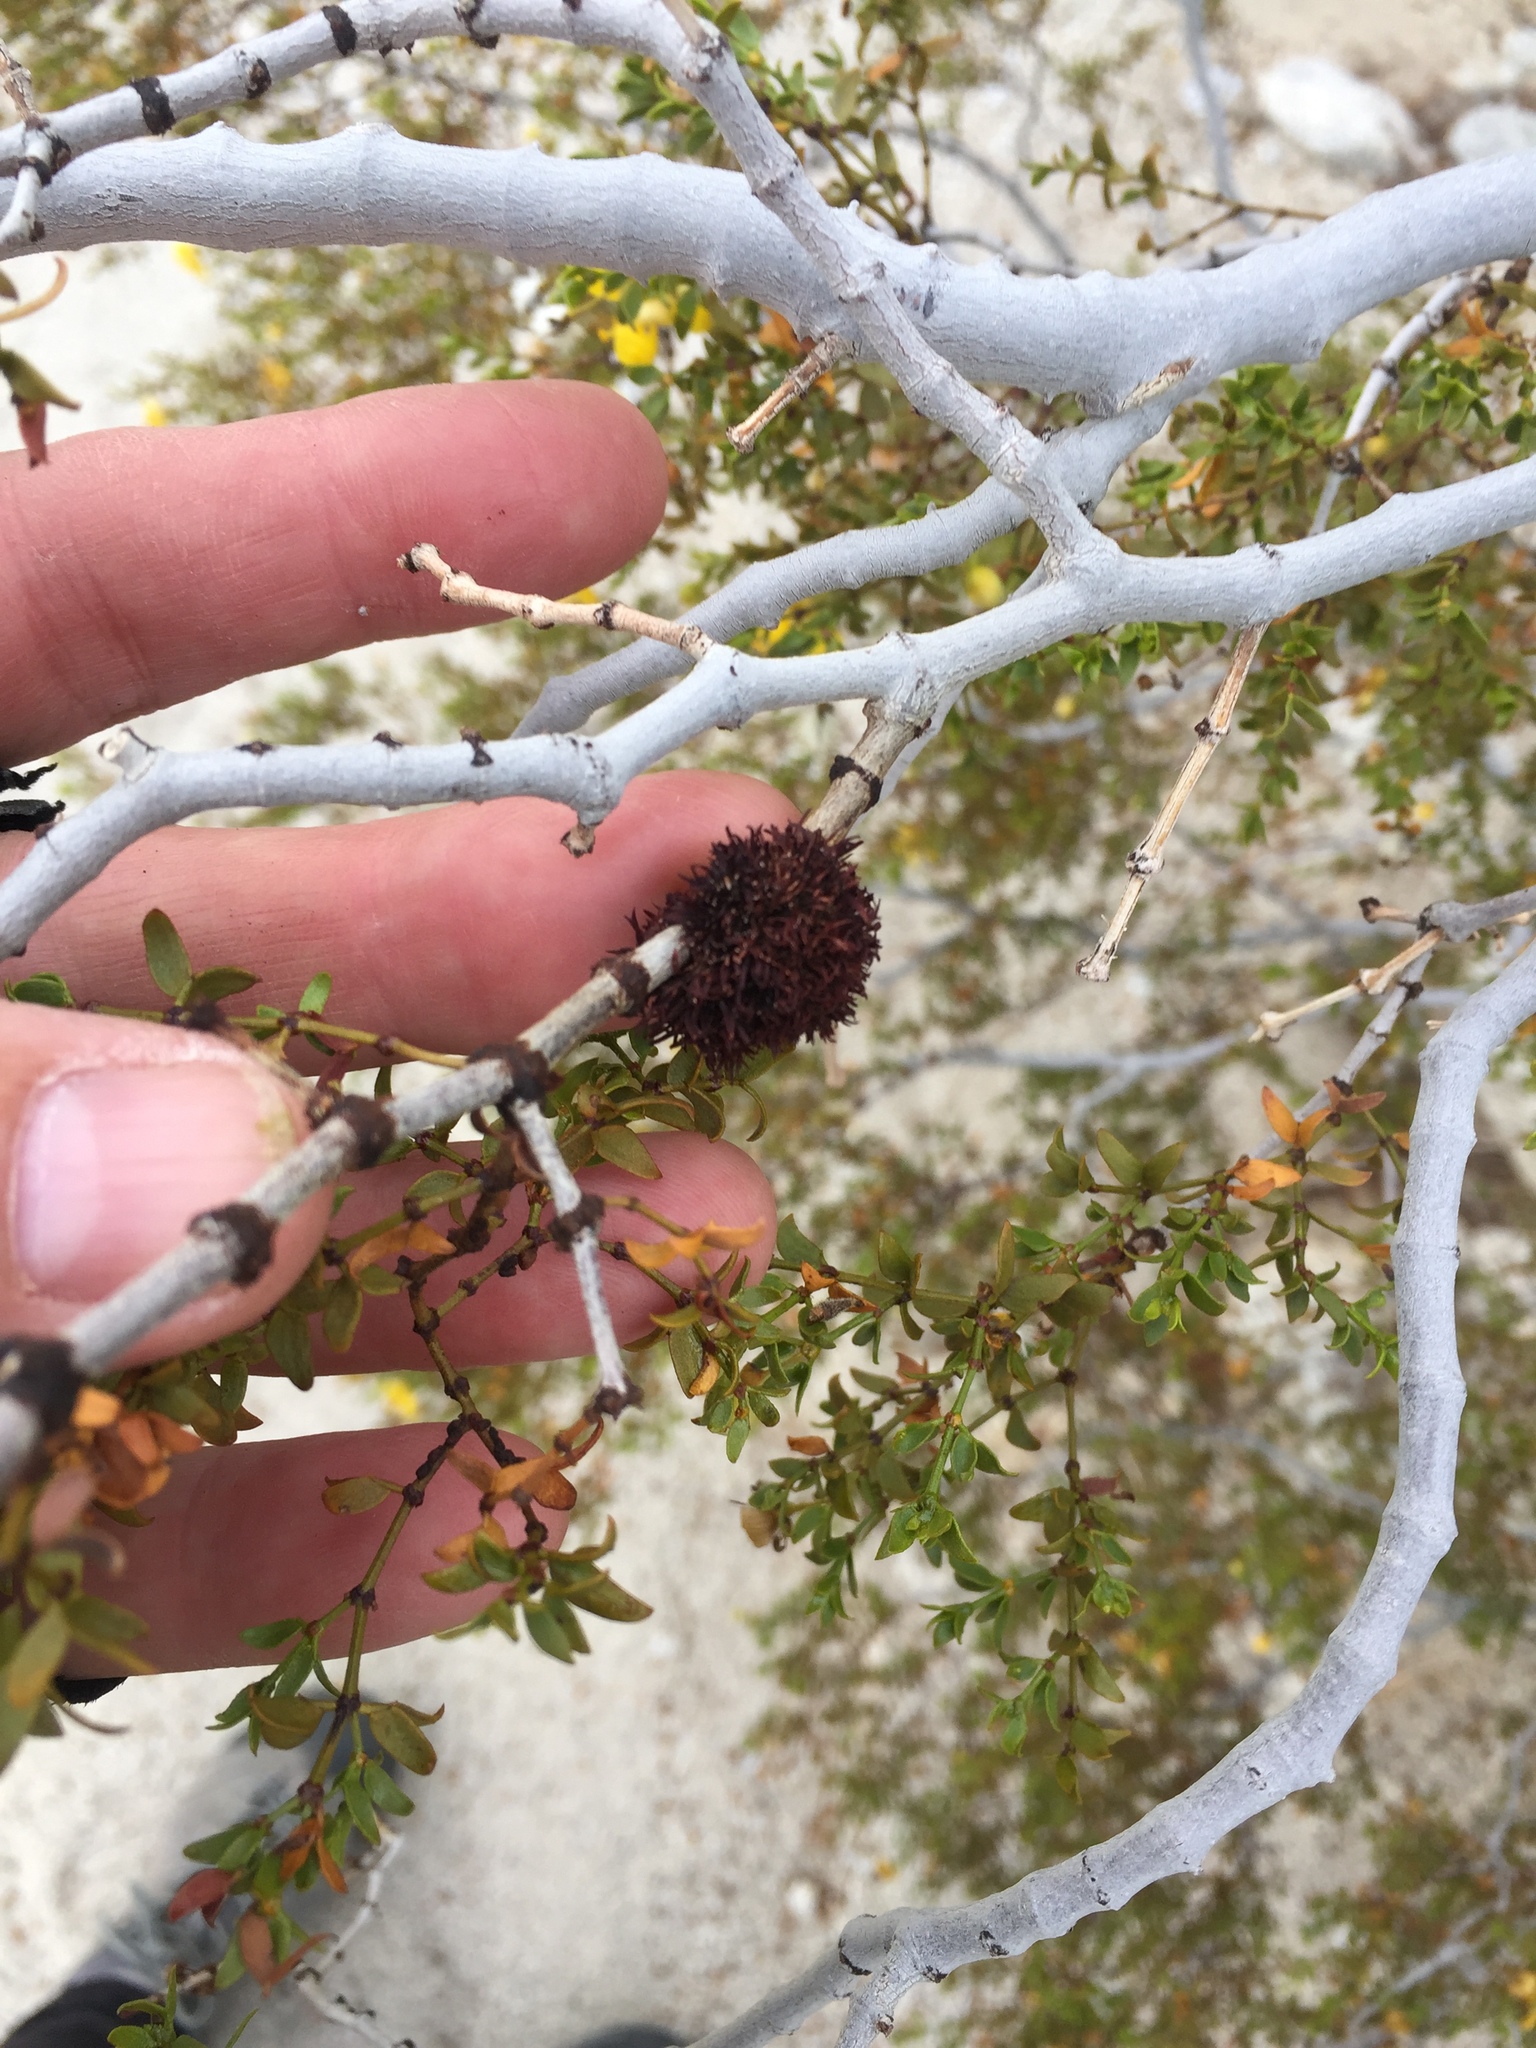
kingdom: Animalia
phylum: Arthropoda
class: Insecta
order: Diptera
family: Cecidomyiidae
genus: Asphondylia
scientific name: Asphondylia auripila
